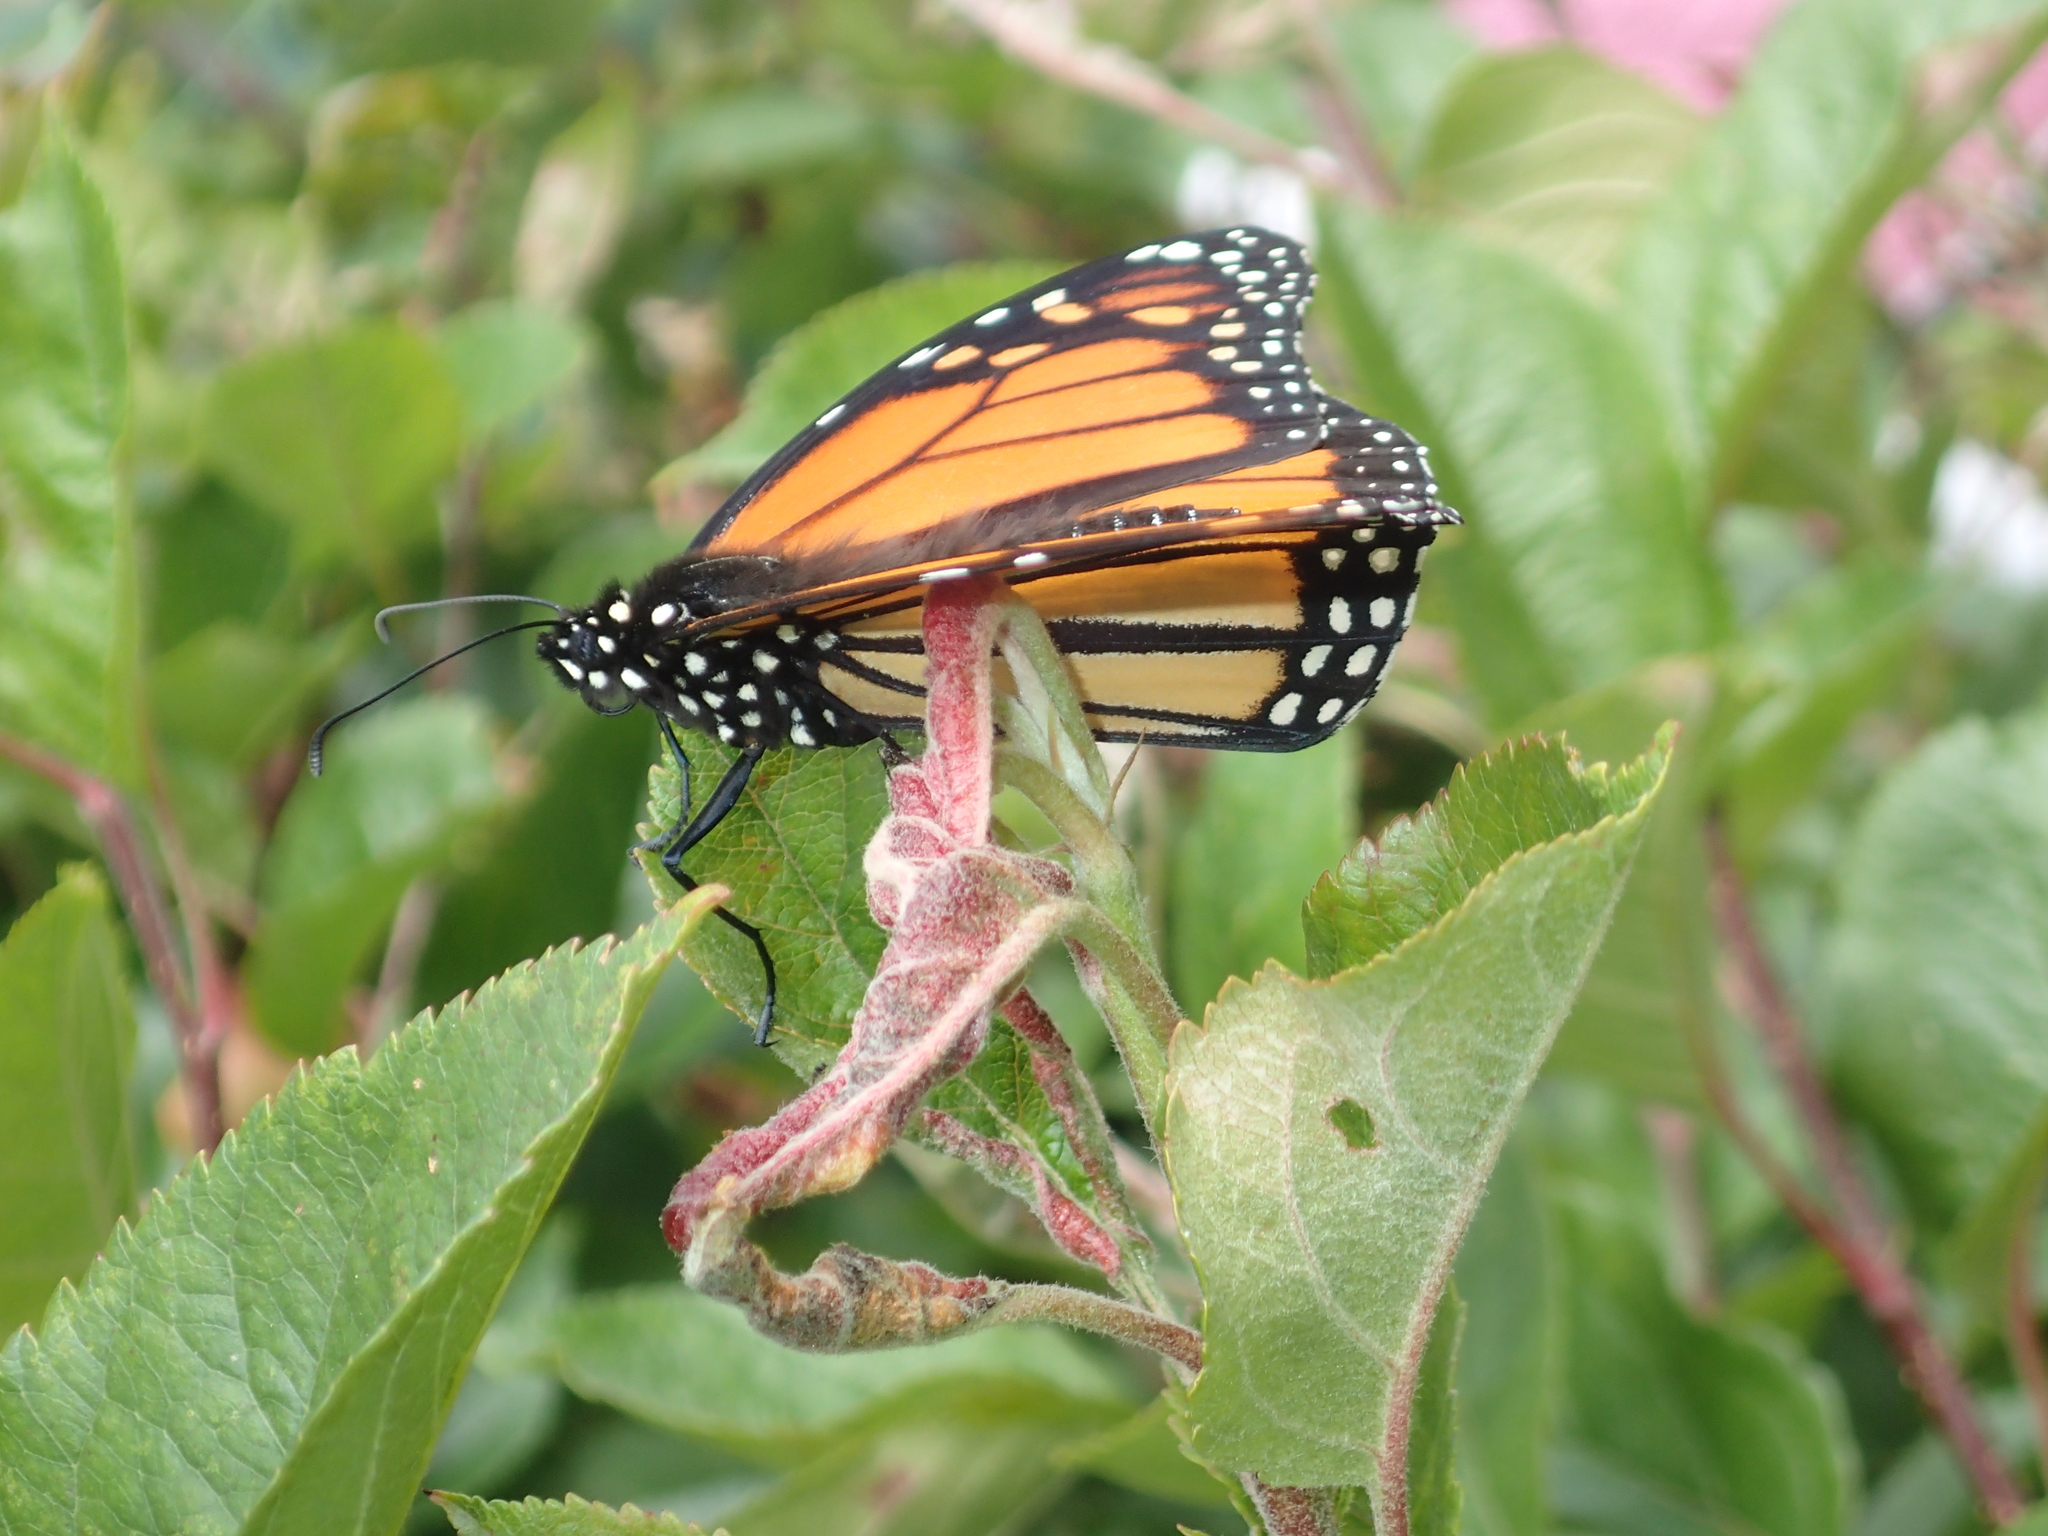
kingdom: Animalia
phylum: Arthropoda
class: Insecta
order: Lepidoptera
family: Nymphalidae
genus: Danaus
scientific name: Danaus plexippus
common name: Monarch
